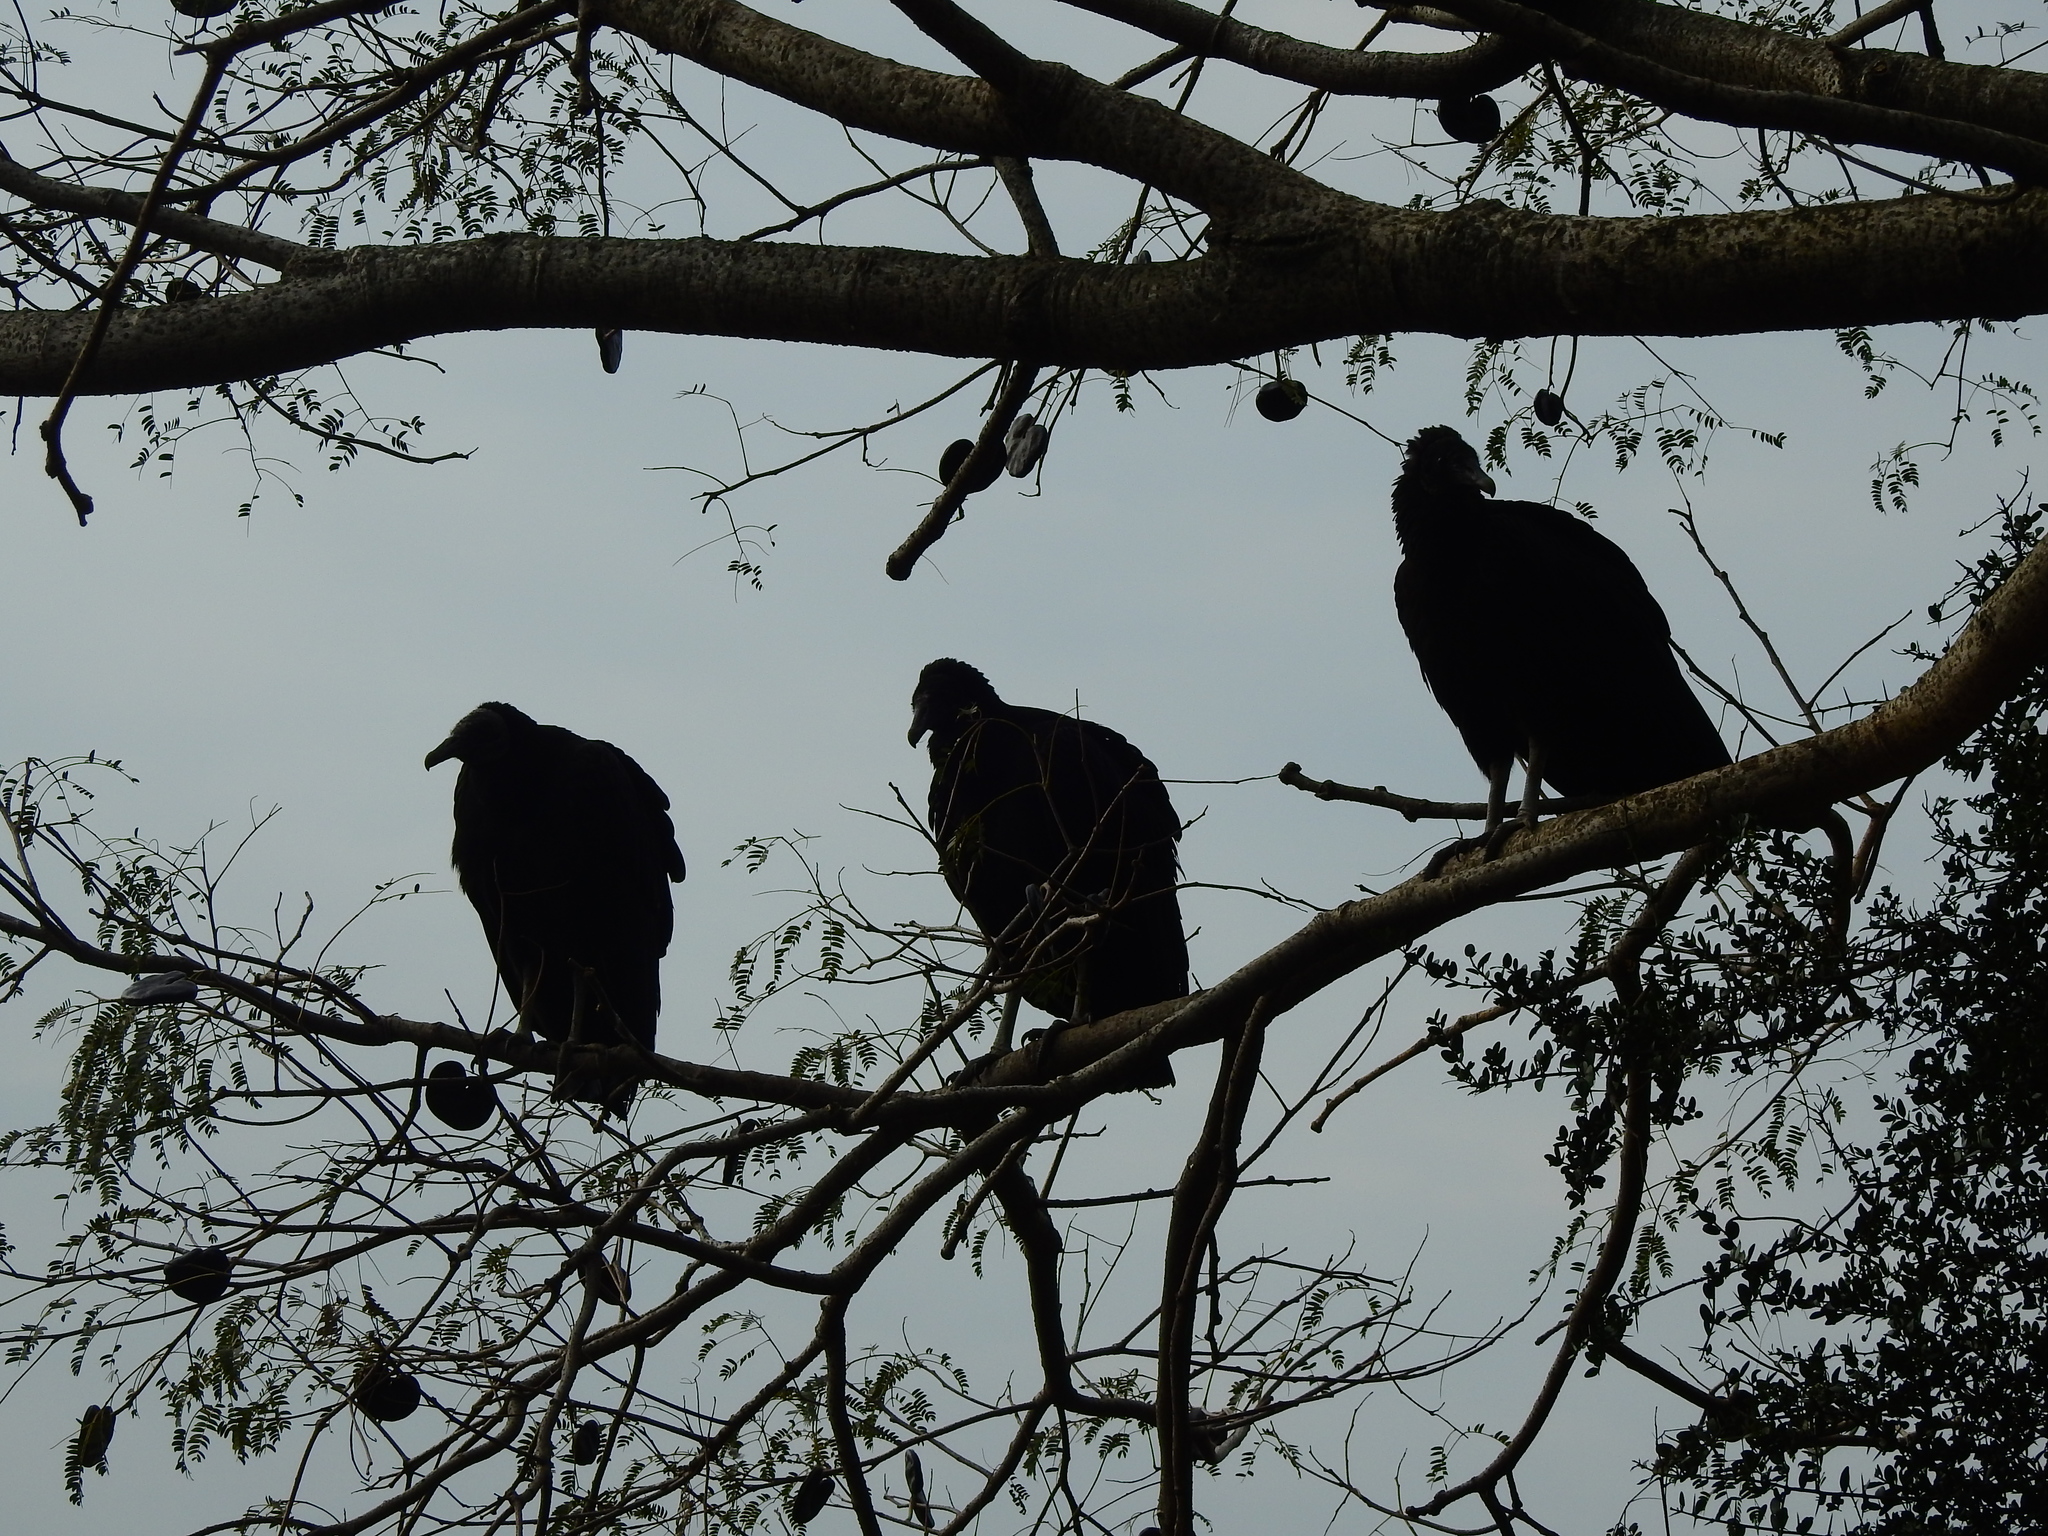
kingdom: Animalia
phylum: Chordata
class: Aves
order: Accipitriformes
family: Cathartidae
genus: Coragyps
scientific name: Coragyps atratus
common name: Black vulture
